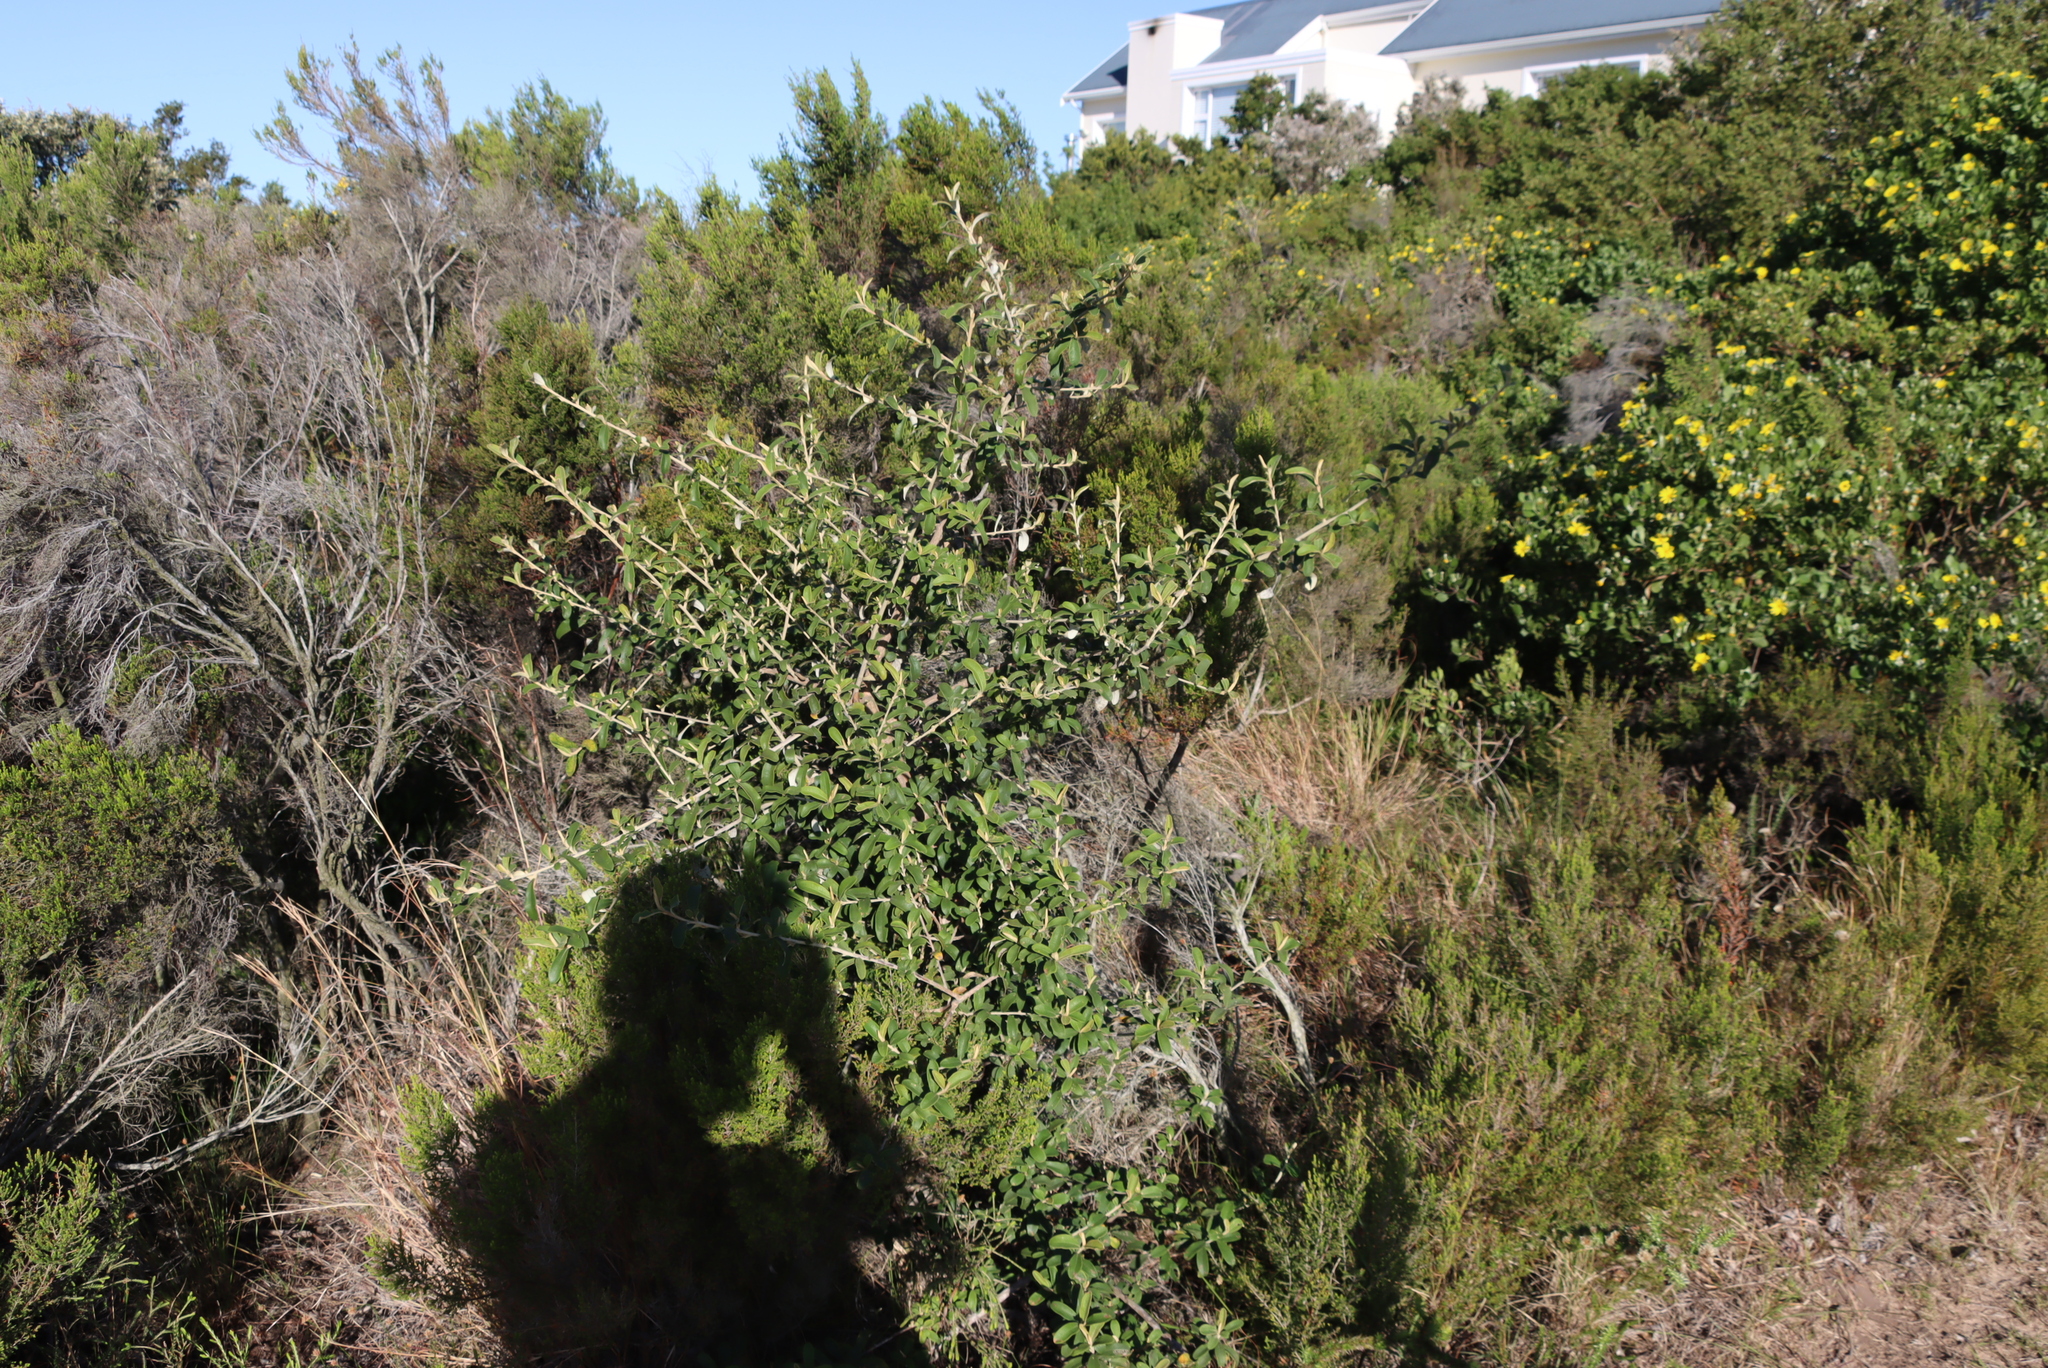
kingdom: Plantae
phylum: Tracheophyta
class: Magnoliopsida
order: Asterales
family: Asteraceae
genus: Tarchonanthus
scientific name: Tarchonanthus littoralis
